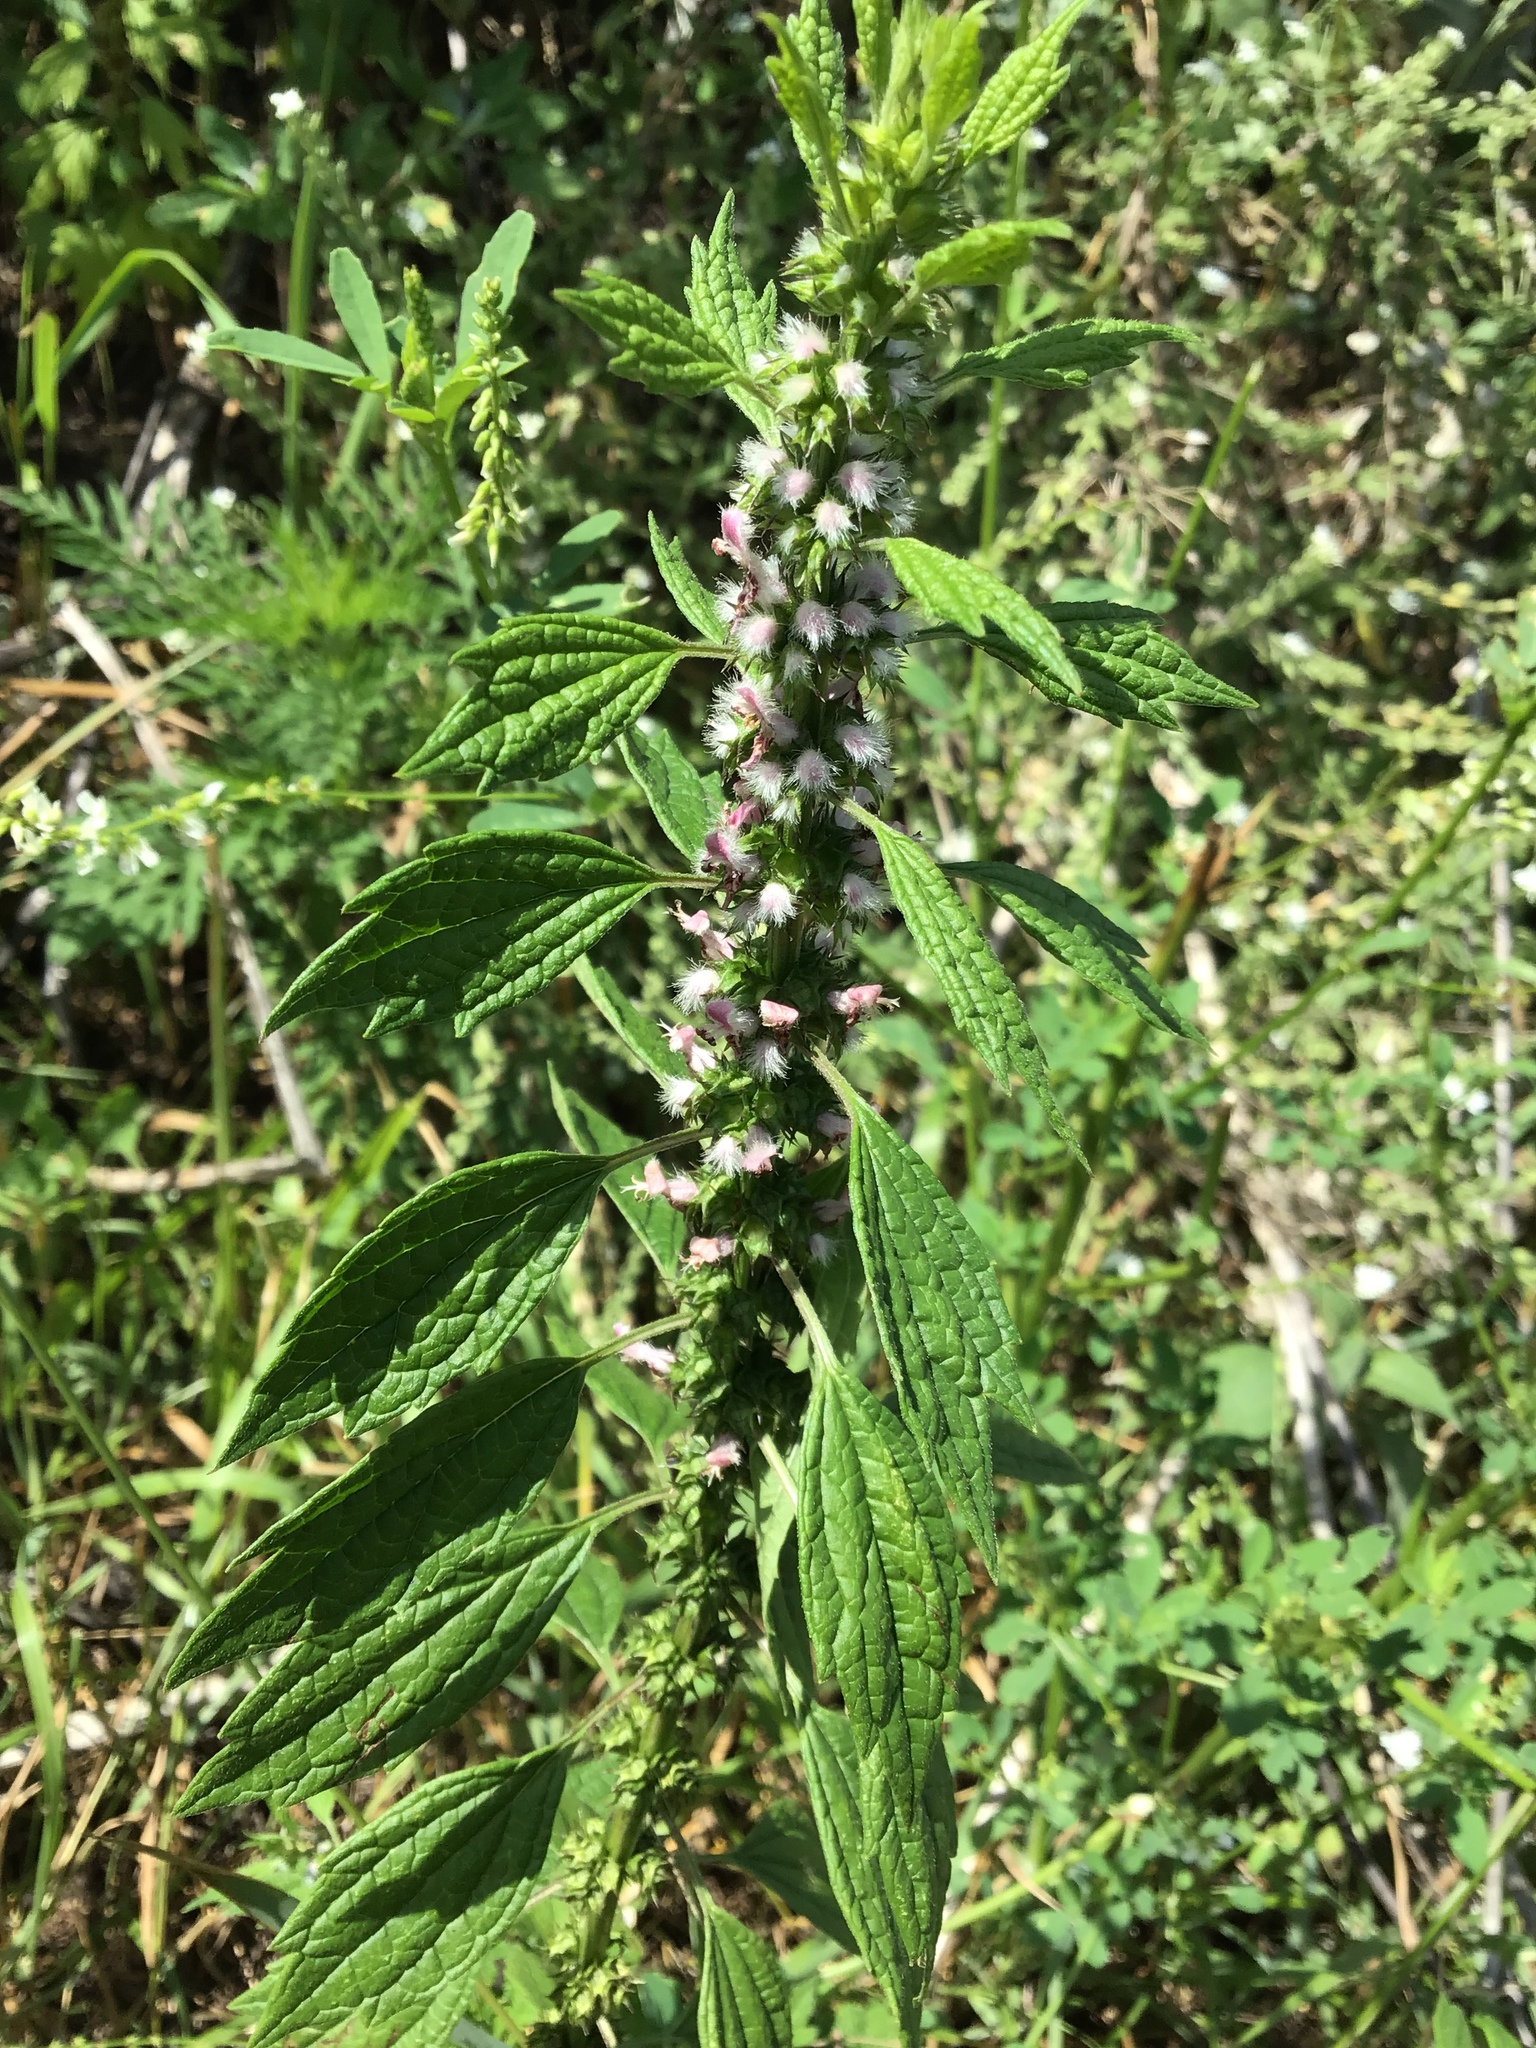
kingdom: Plantae
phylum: Tracheophyta
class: Magnoliopsida
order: Lamiales
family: Lamiaceae
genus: Leonurus
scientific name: Leonurus cardiaca
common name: Motherwort
